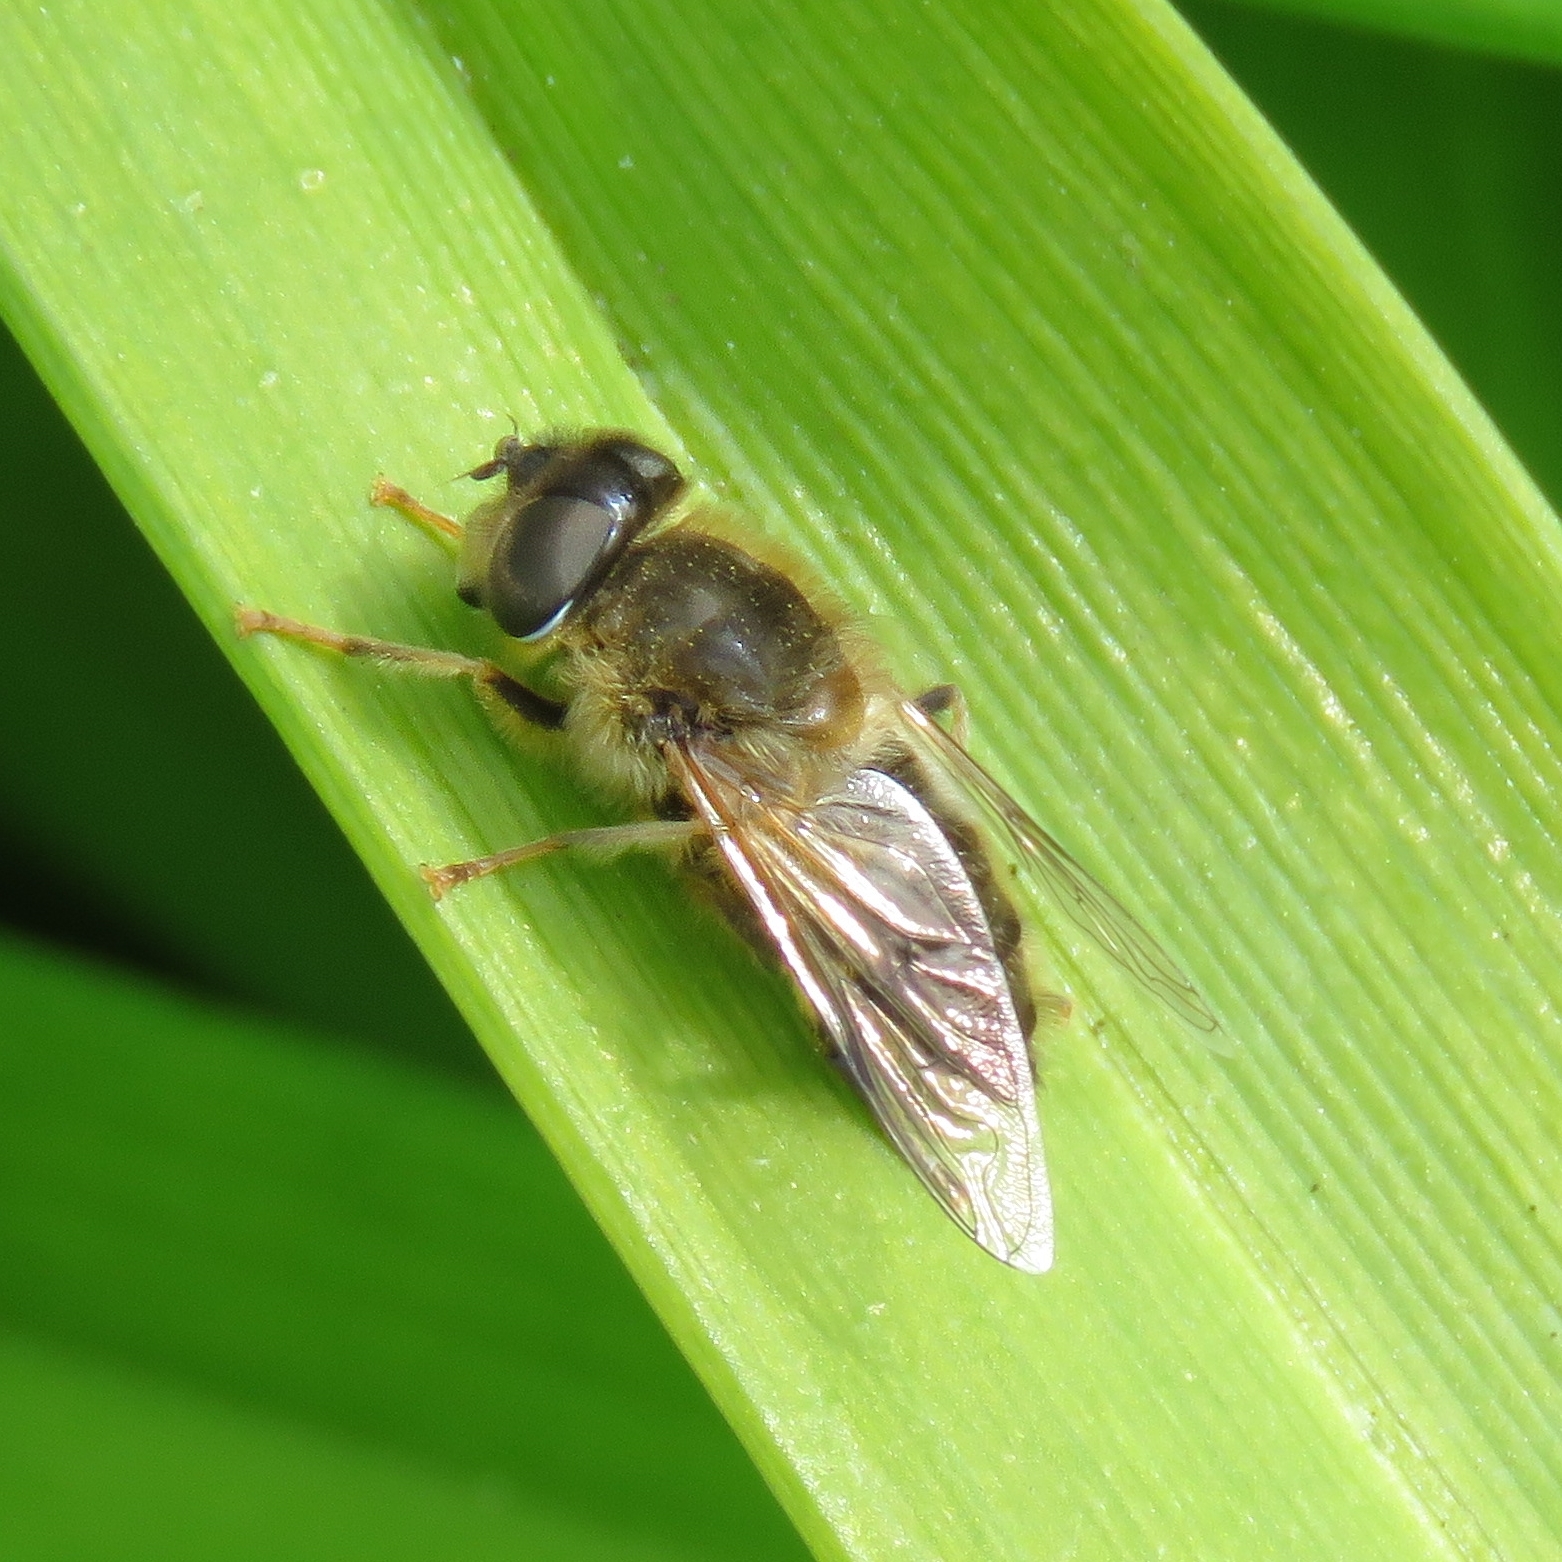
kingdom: Animalia
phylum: Arthropoda
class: Insecta
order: Diptera
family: Syrphidae
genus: Eristalis
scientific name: Eristalis pertinax
